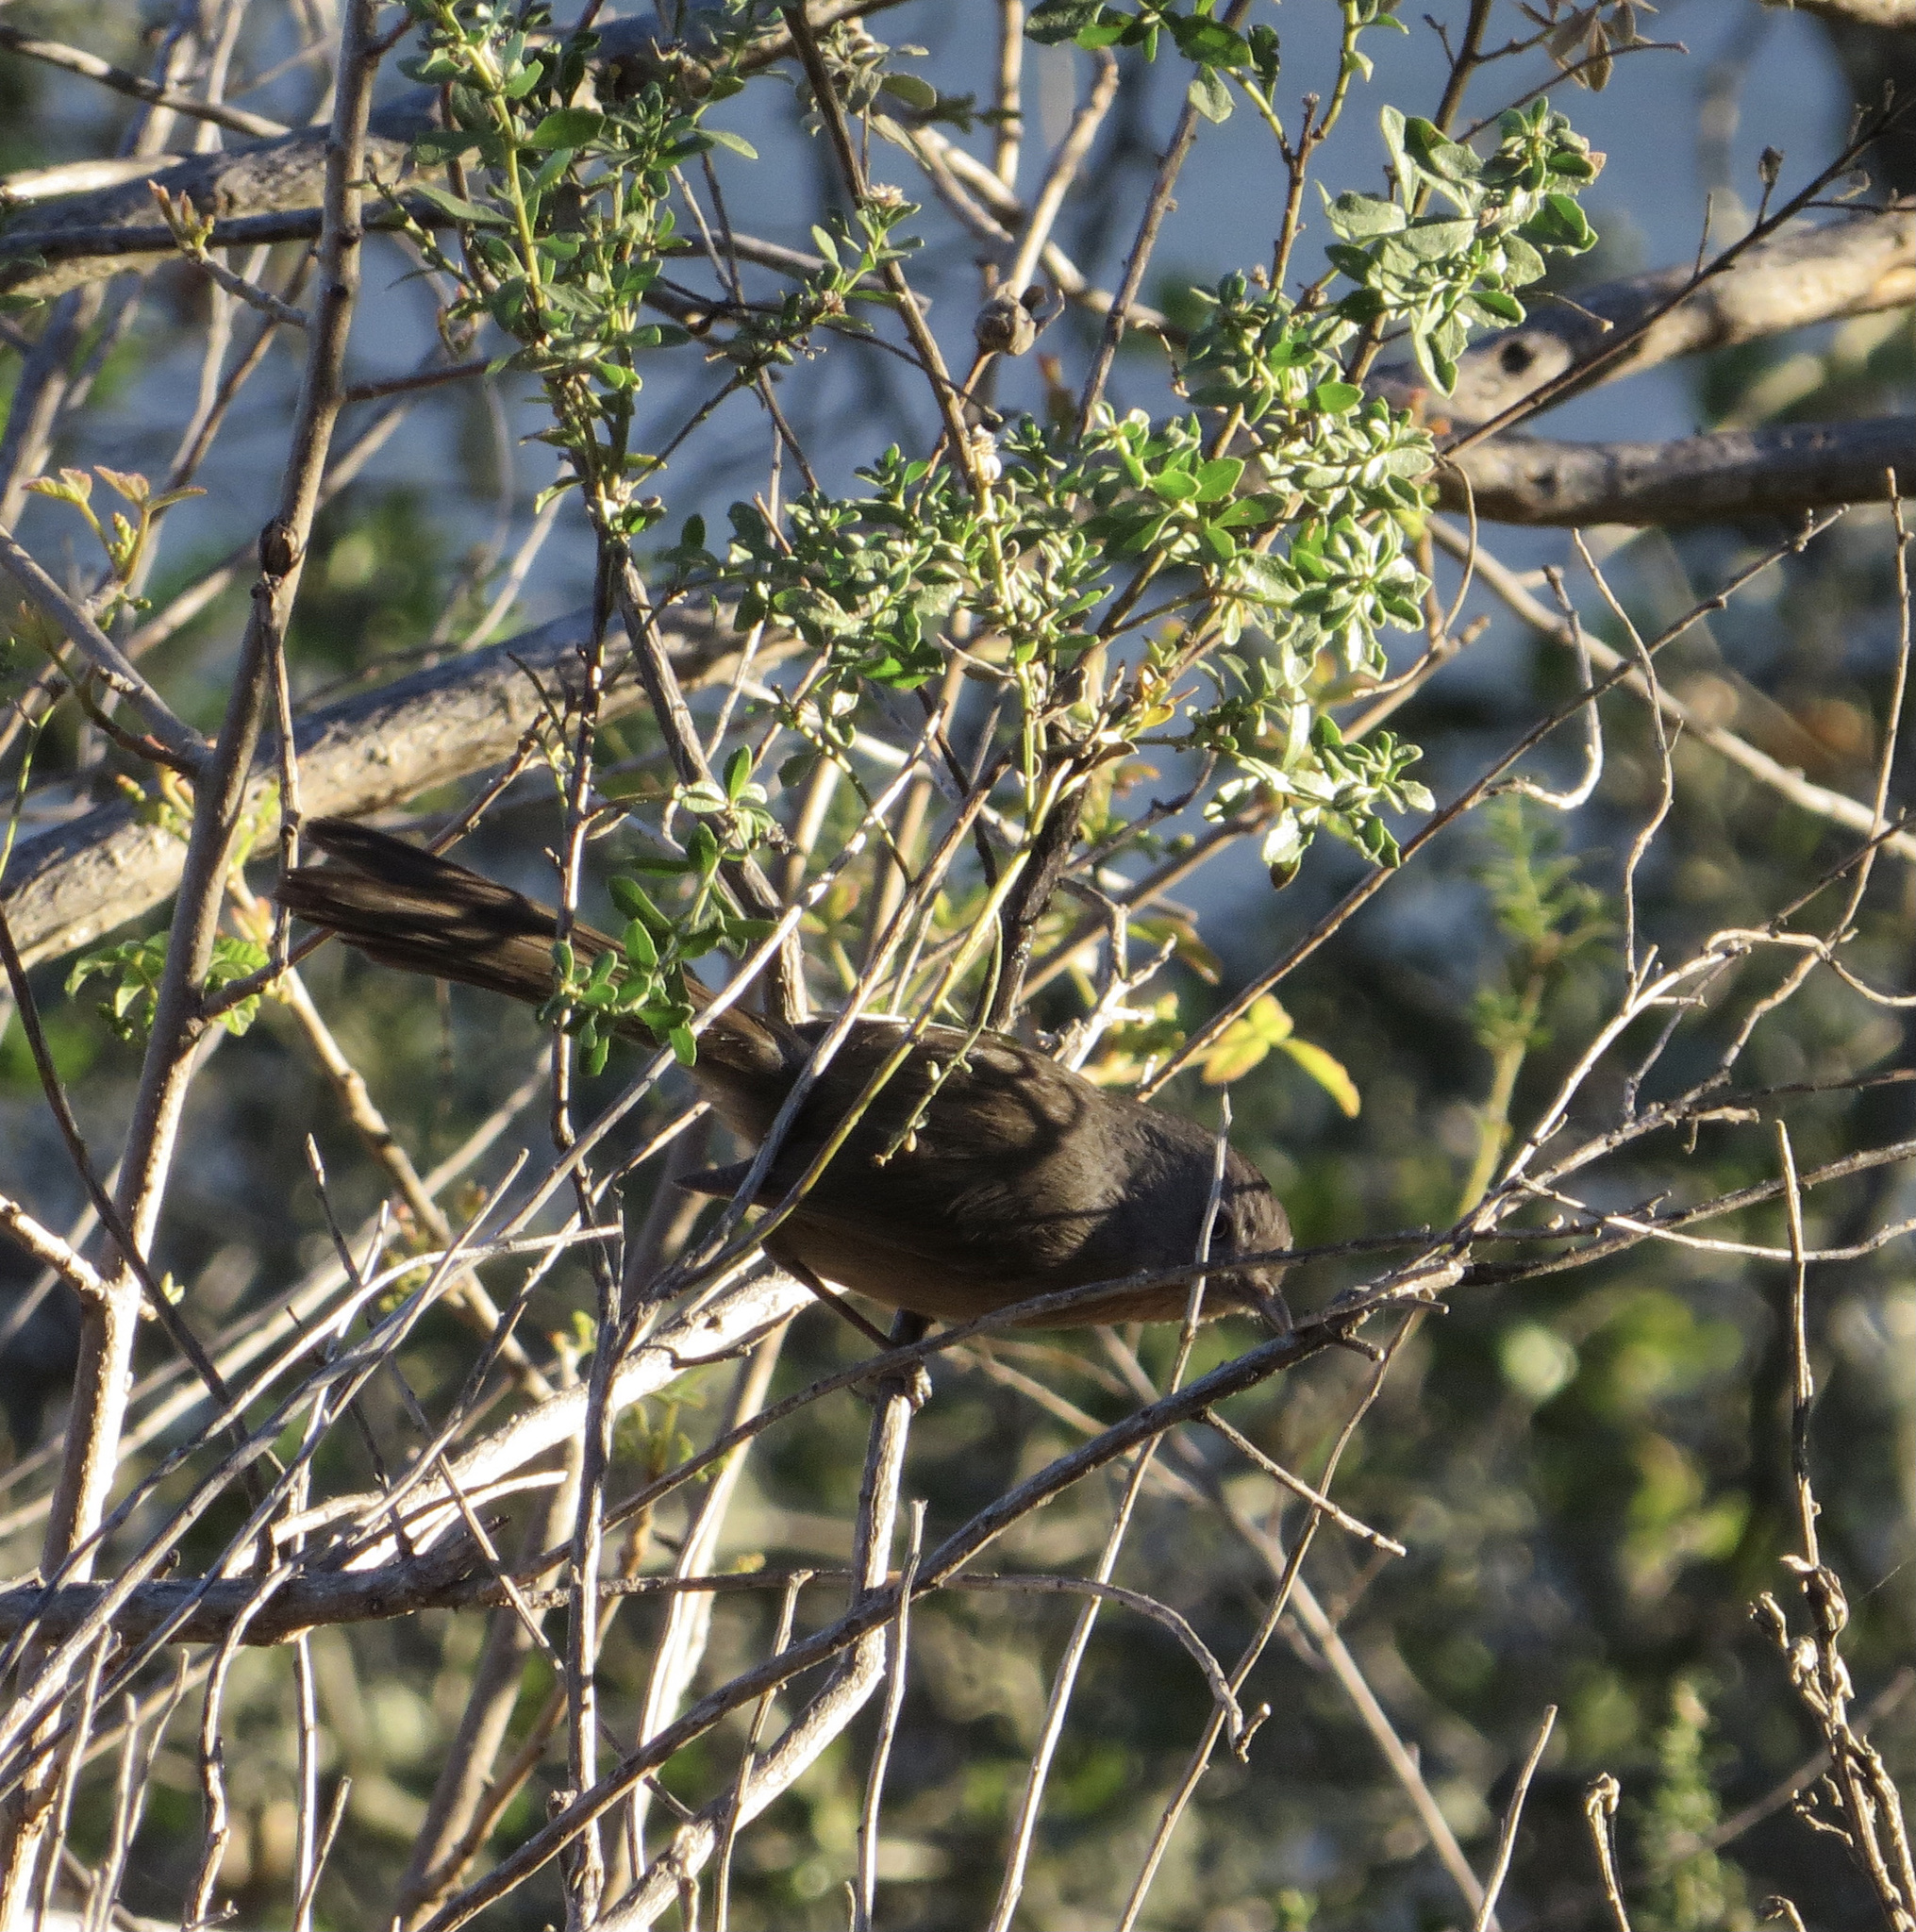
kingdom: Animalia
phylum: Chordata
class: Aves
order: Passeriformes
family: Sylviidae
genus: Chamaea
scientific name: Chamaea fasciata
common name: Wrentit
